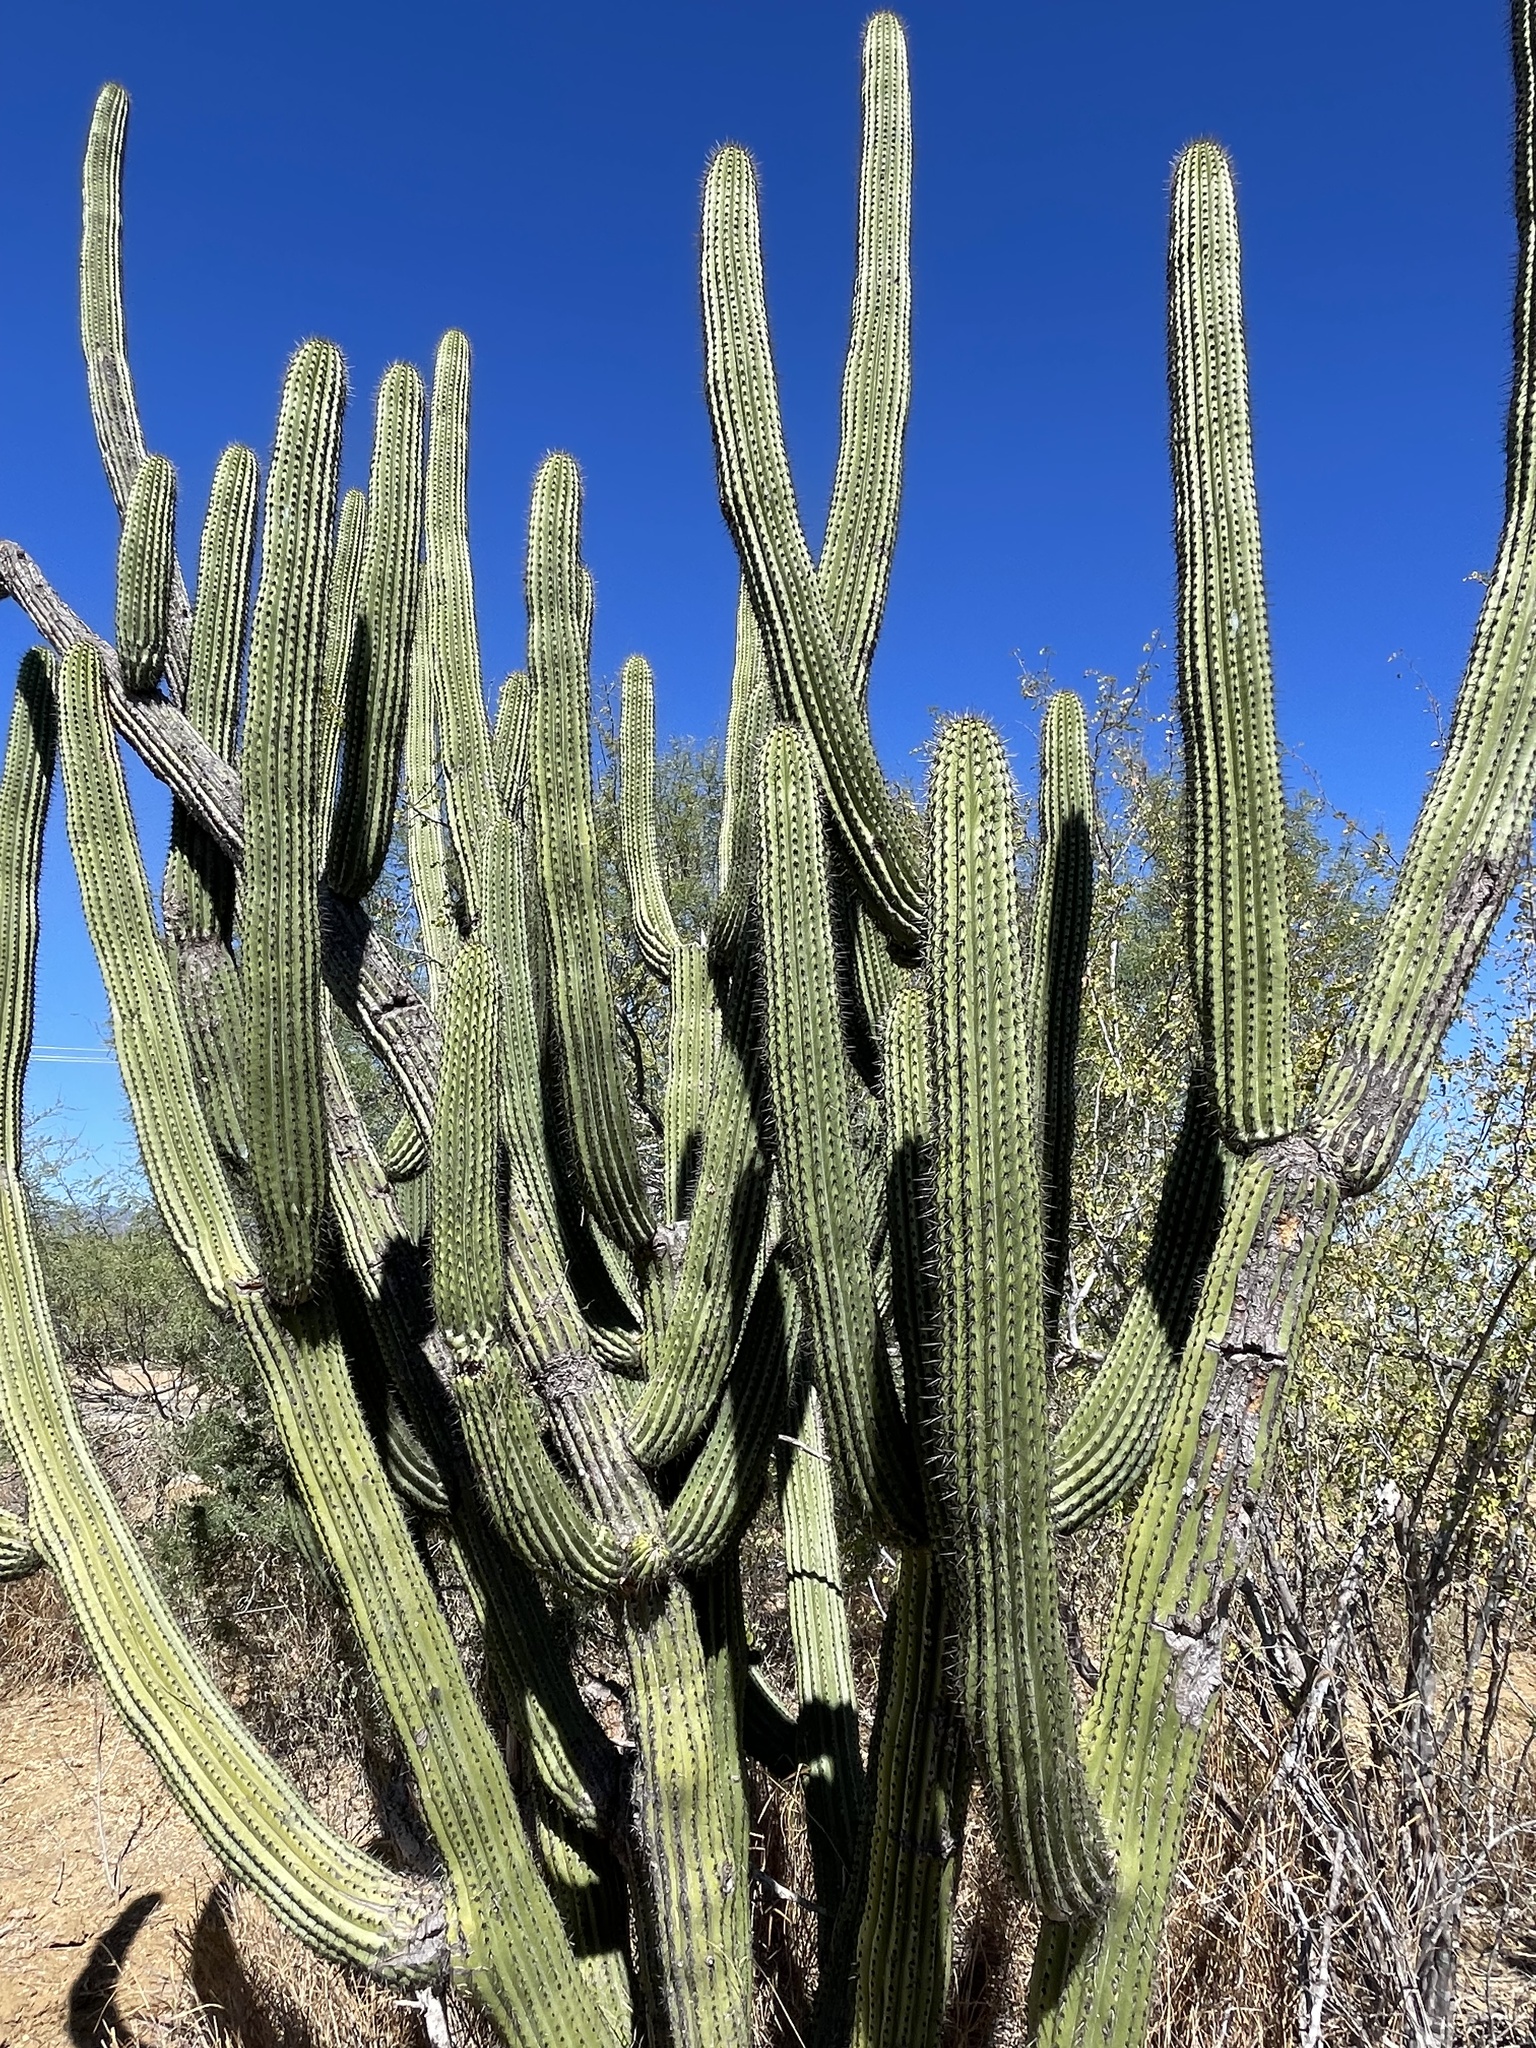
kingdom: Plantae
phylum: Tracheophyta
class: Magnoliopsida
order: Caryophyllales
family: Cactaceae
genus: Stenocereus
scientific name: Stenocereus thurberi
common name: Organ pipe cactus
